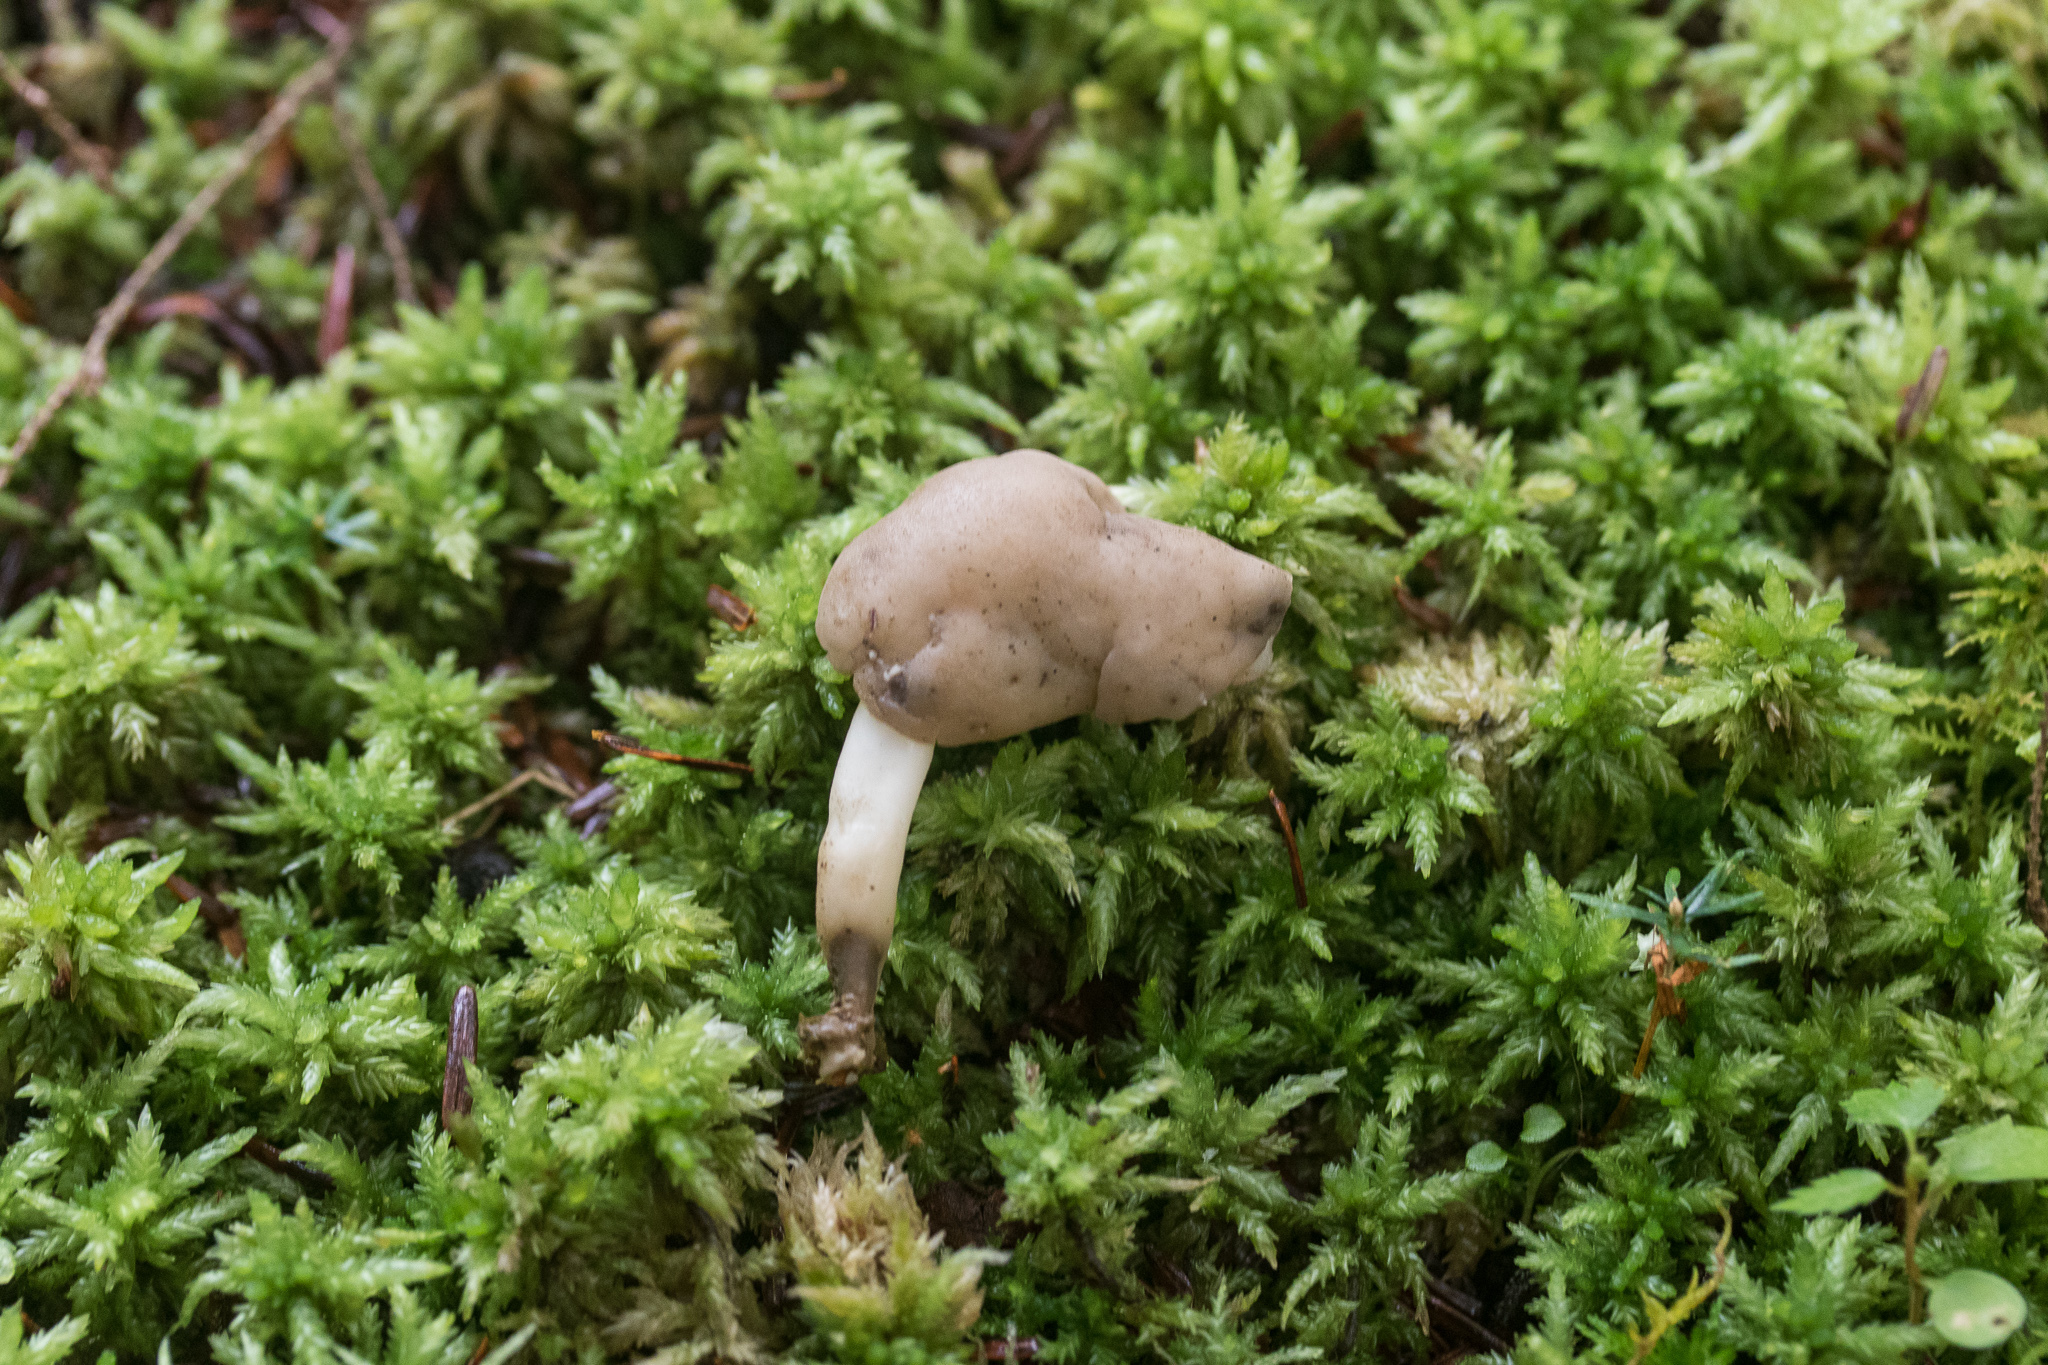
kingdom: Fungi
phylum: Ascomycota
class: Pezizomycetes
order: Pezizales
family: Helvellaceae
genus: Helvella
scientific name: Helvella elastica
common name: Elastic saddle
